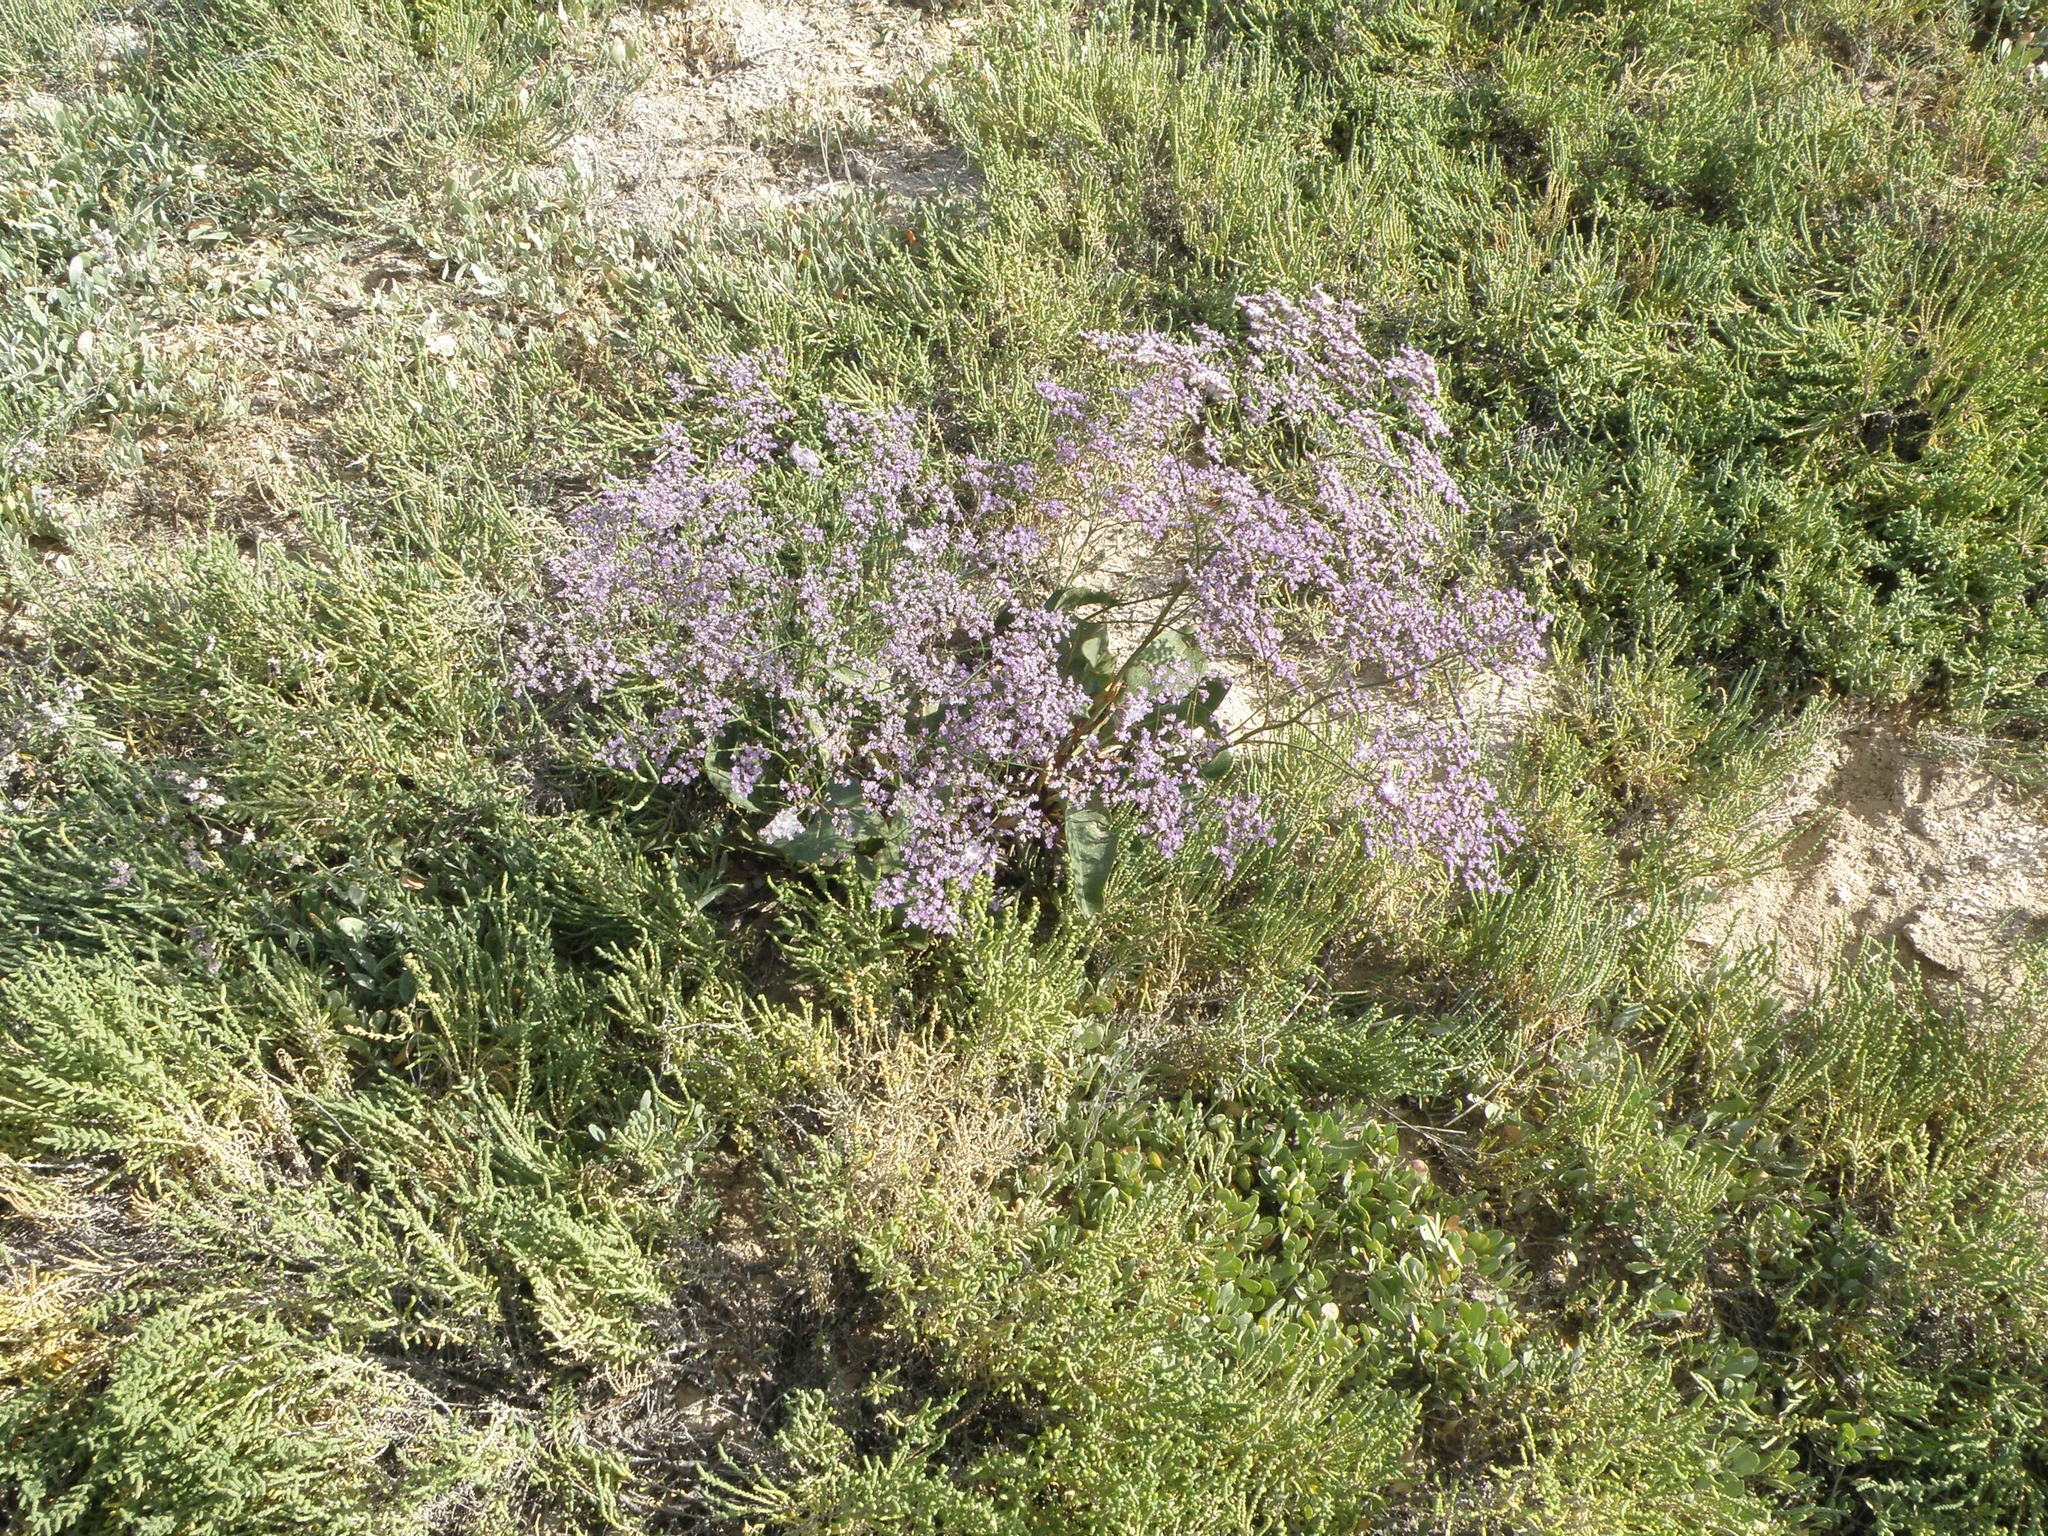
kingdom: Plantae
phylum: Tracheophyta
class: Magnoliopsida
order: Caryophyllales
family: Plumbaginaceae
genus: Limonium
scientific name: Limonium gmelini
